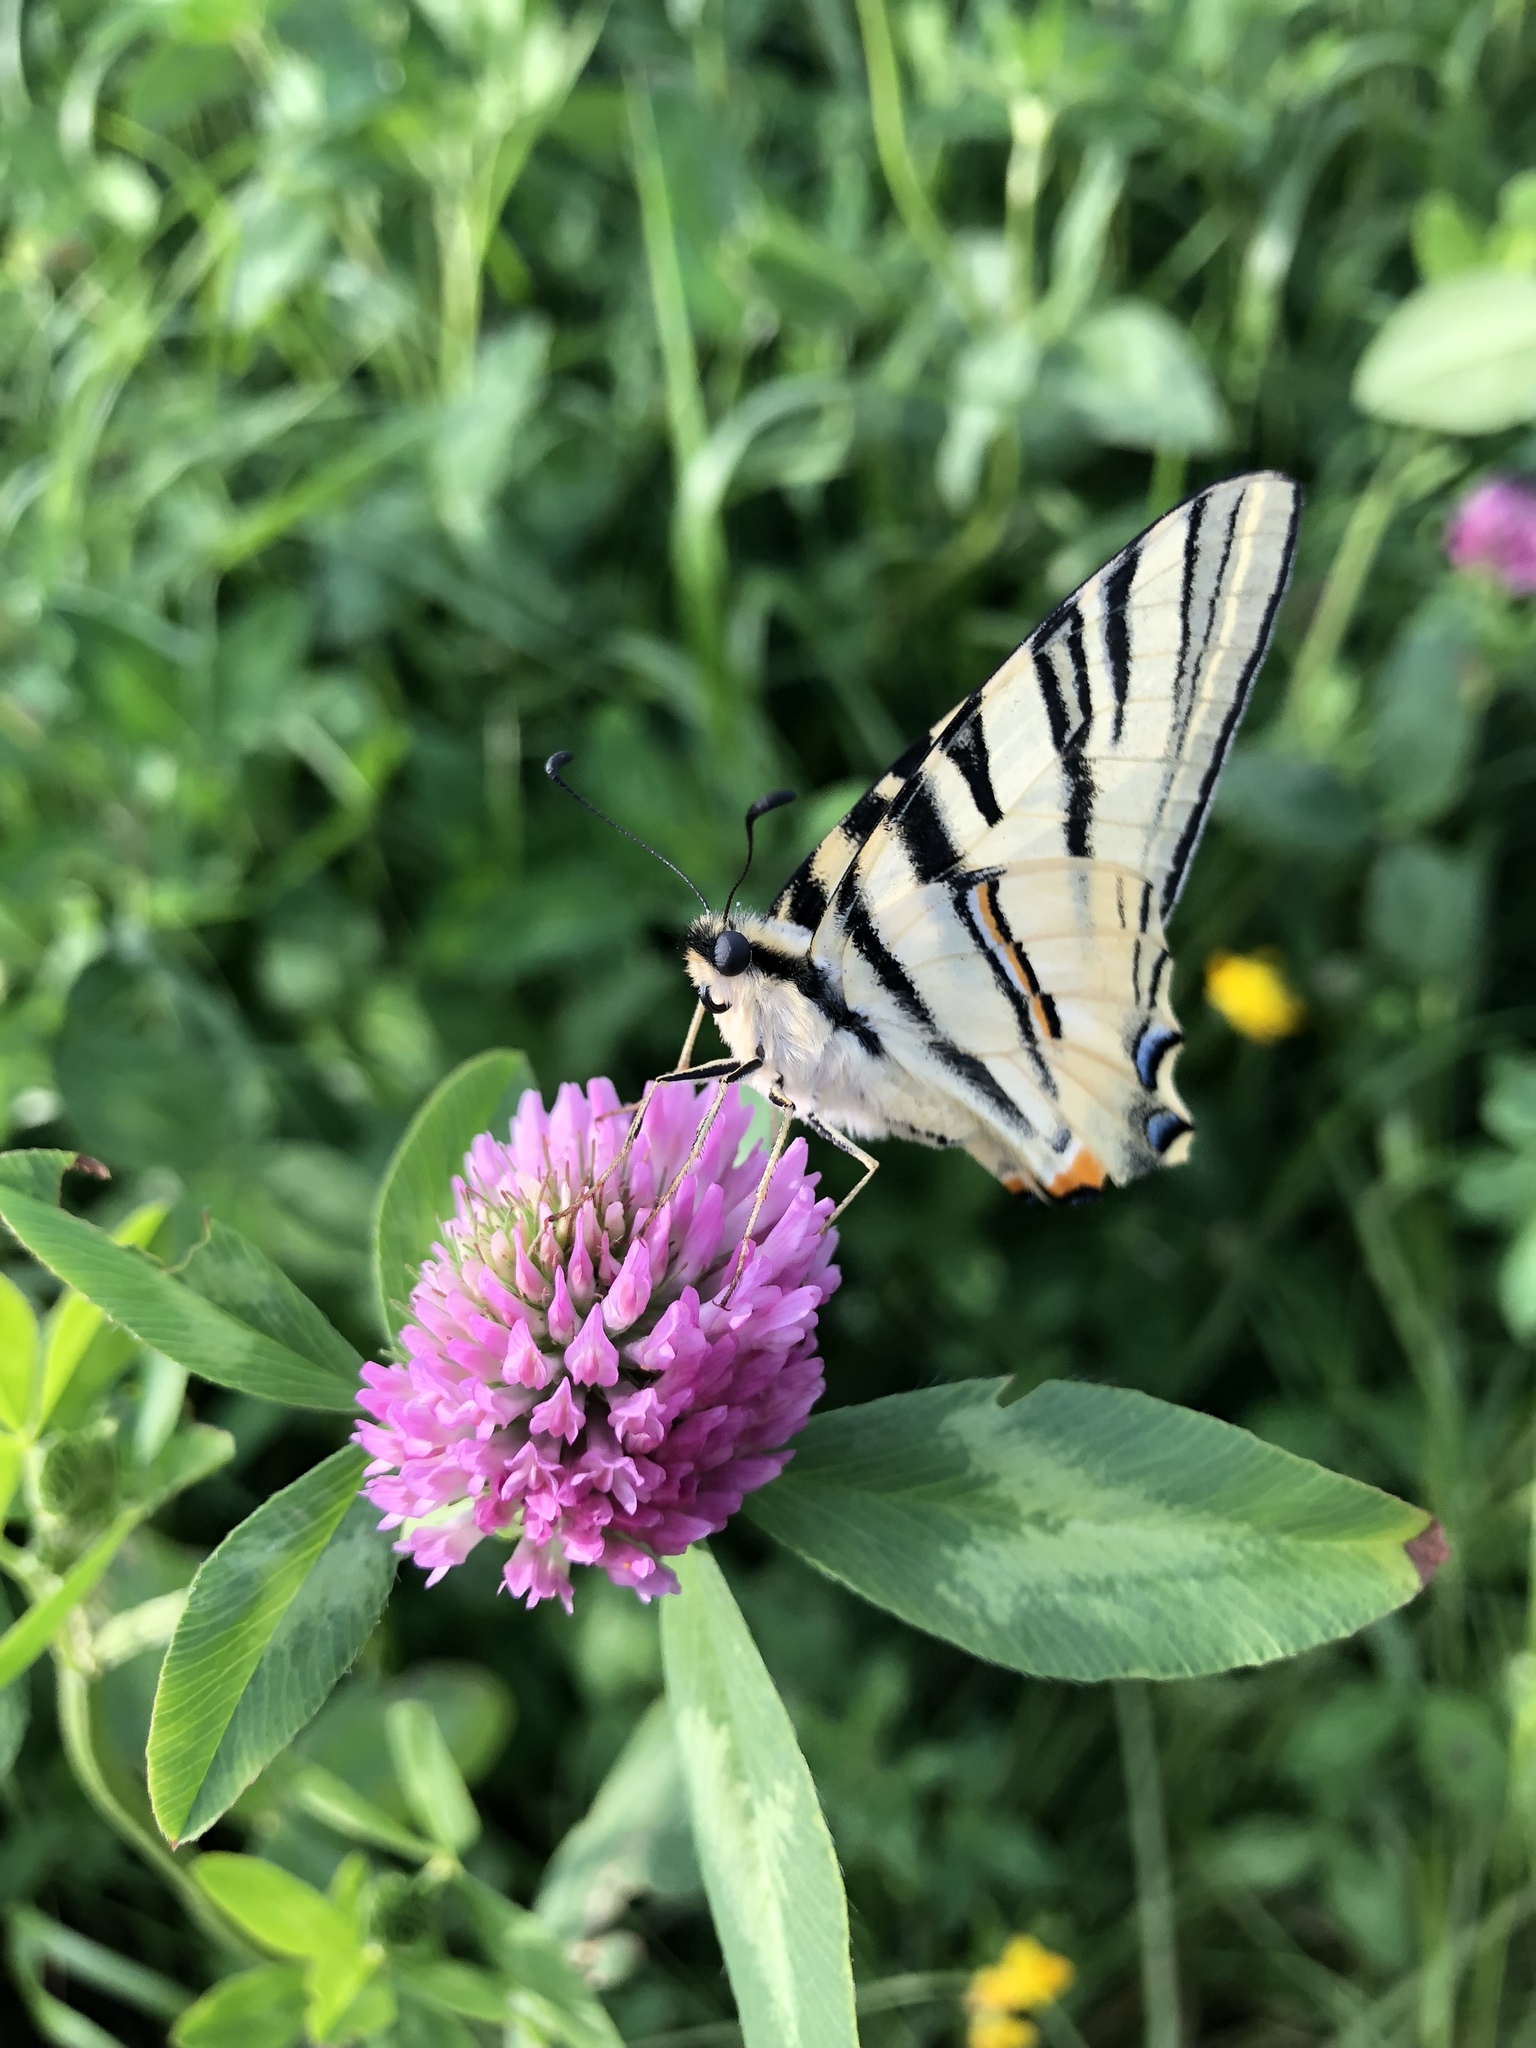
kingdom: Animalia
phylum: Arthropoda
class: Insecta
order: Lepidoptera
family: Papilionidae
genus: Iphiclides
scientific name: Iphiclides podalirius
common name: Scarce swallowtail
